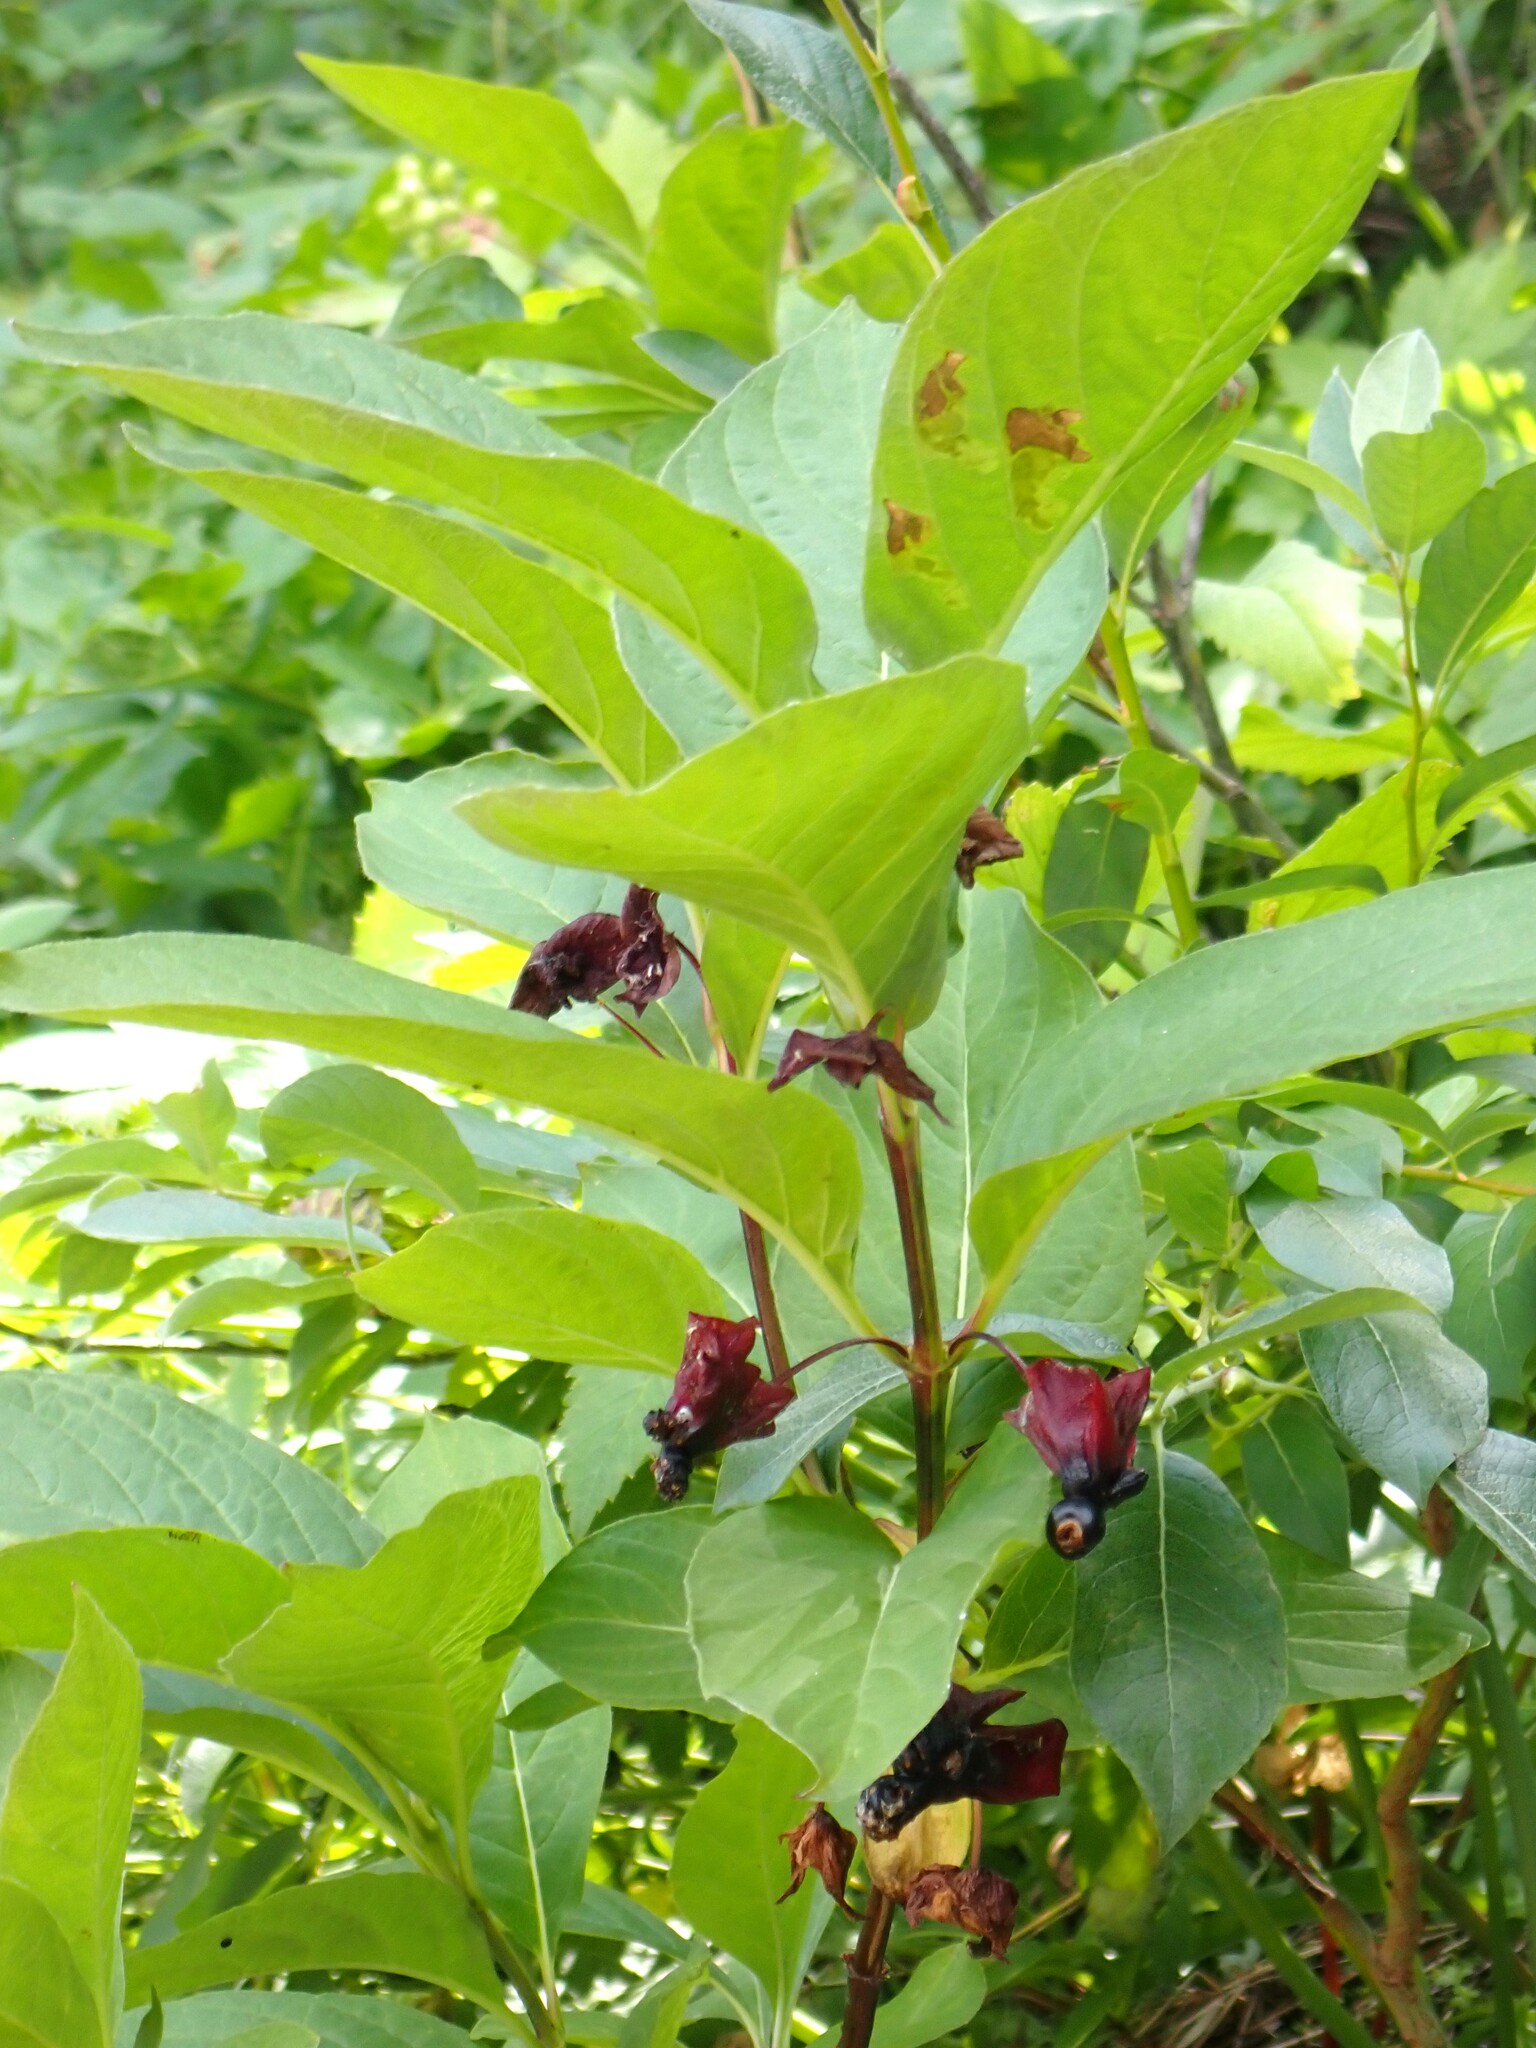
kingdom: Plantae
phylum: Tracheophyta
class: Magnoliopsida
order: Dipsacales
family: Caprifoliaceae
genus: Lonicera
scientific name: Lonicera involucrata
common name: Californian honeysuckle
